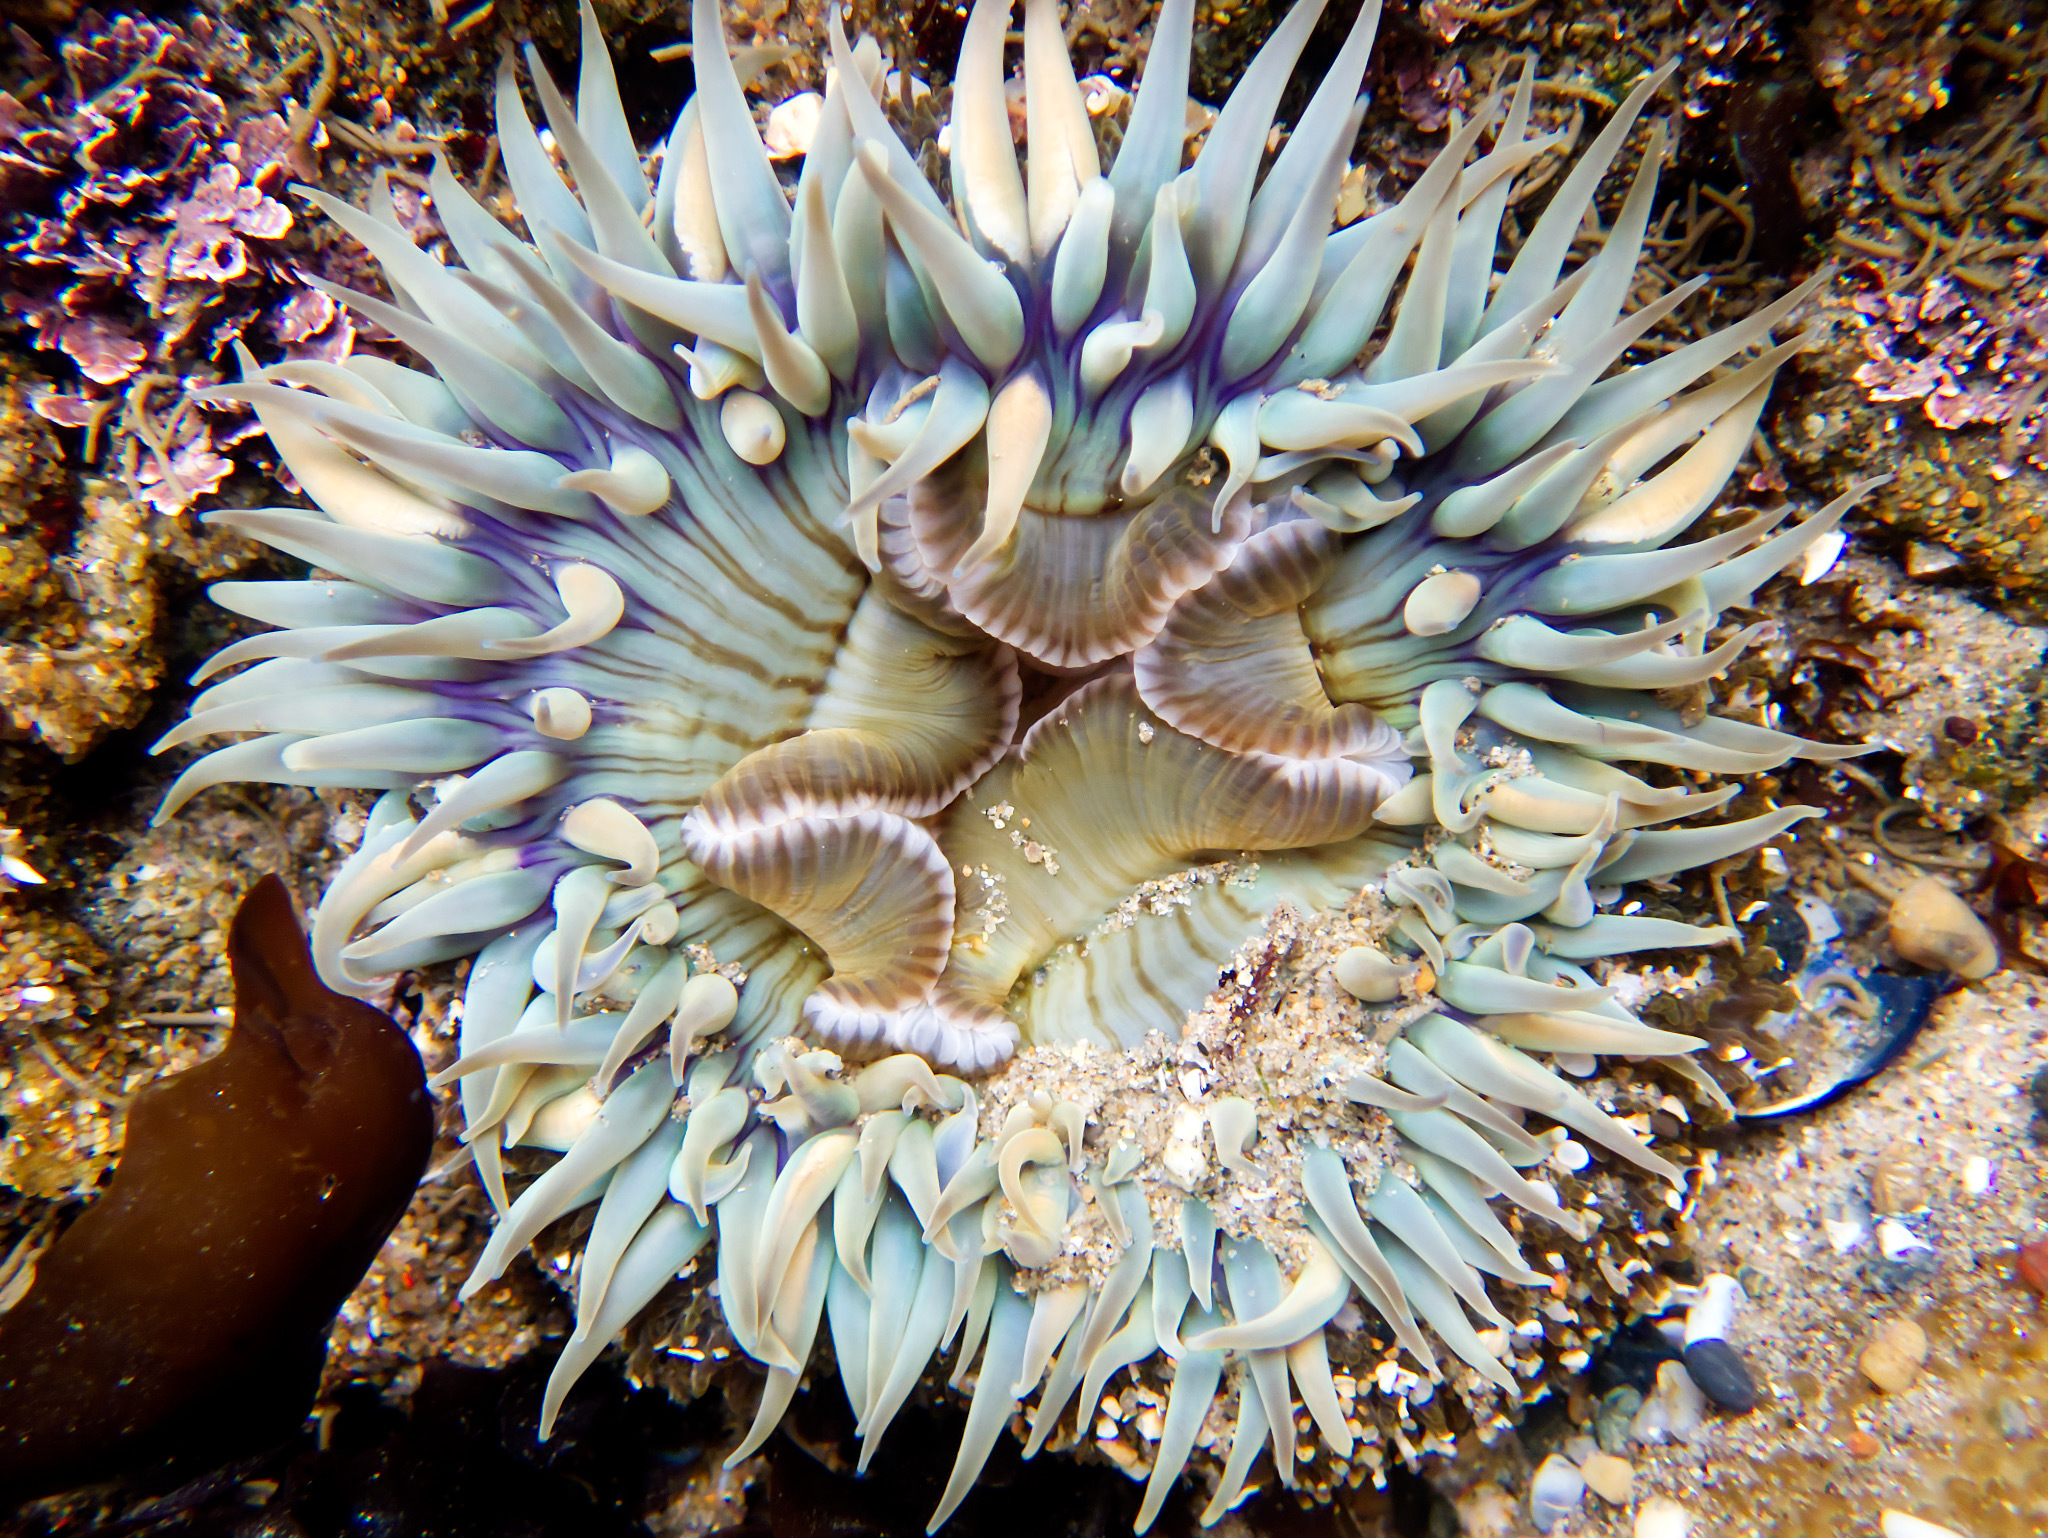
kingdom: Animalia
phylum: Cnidaria
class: Anthozoa
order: Actiniaria
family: Actiniidae
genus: Anthopleura
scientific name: Anthopleura sola
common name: Sun anemone
